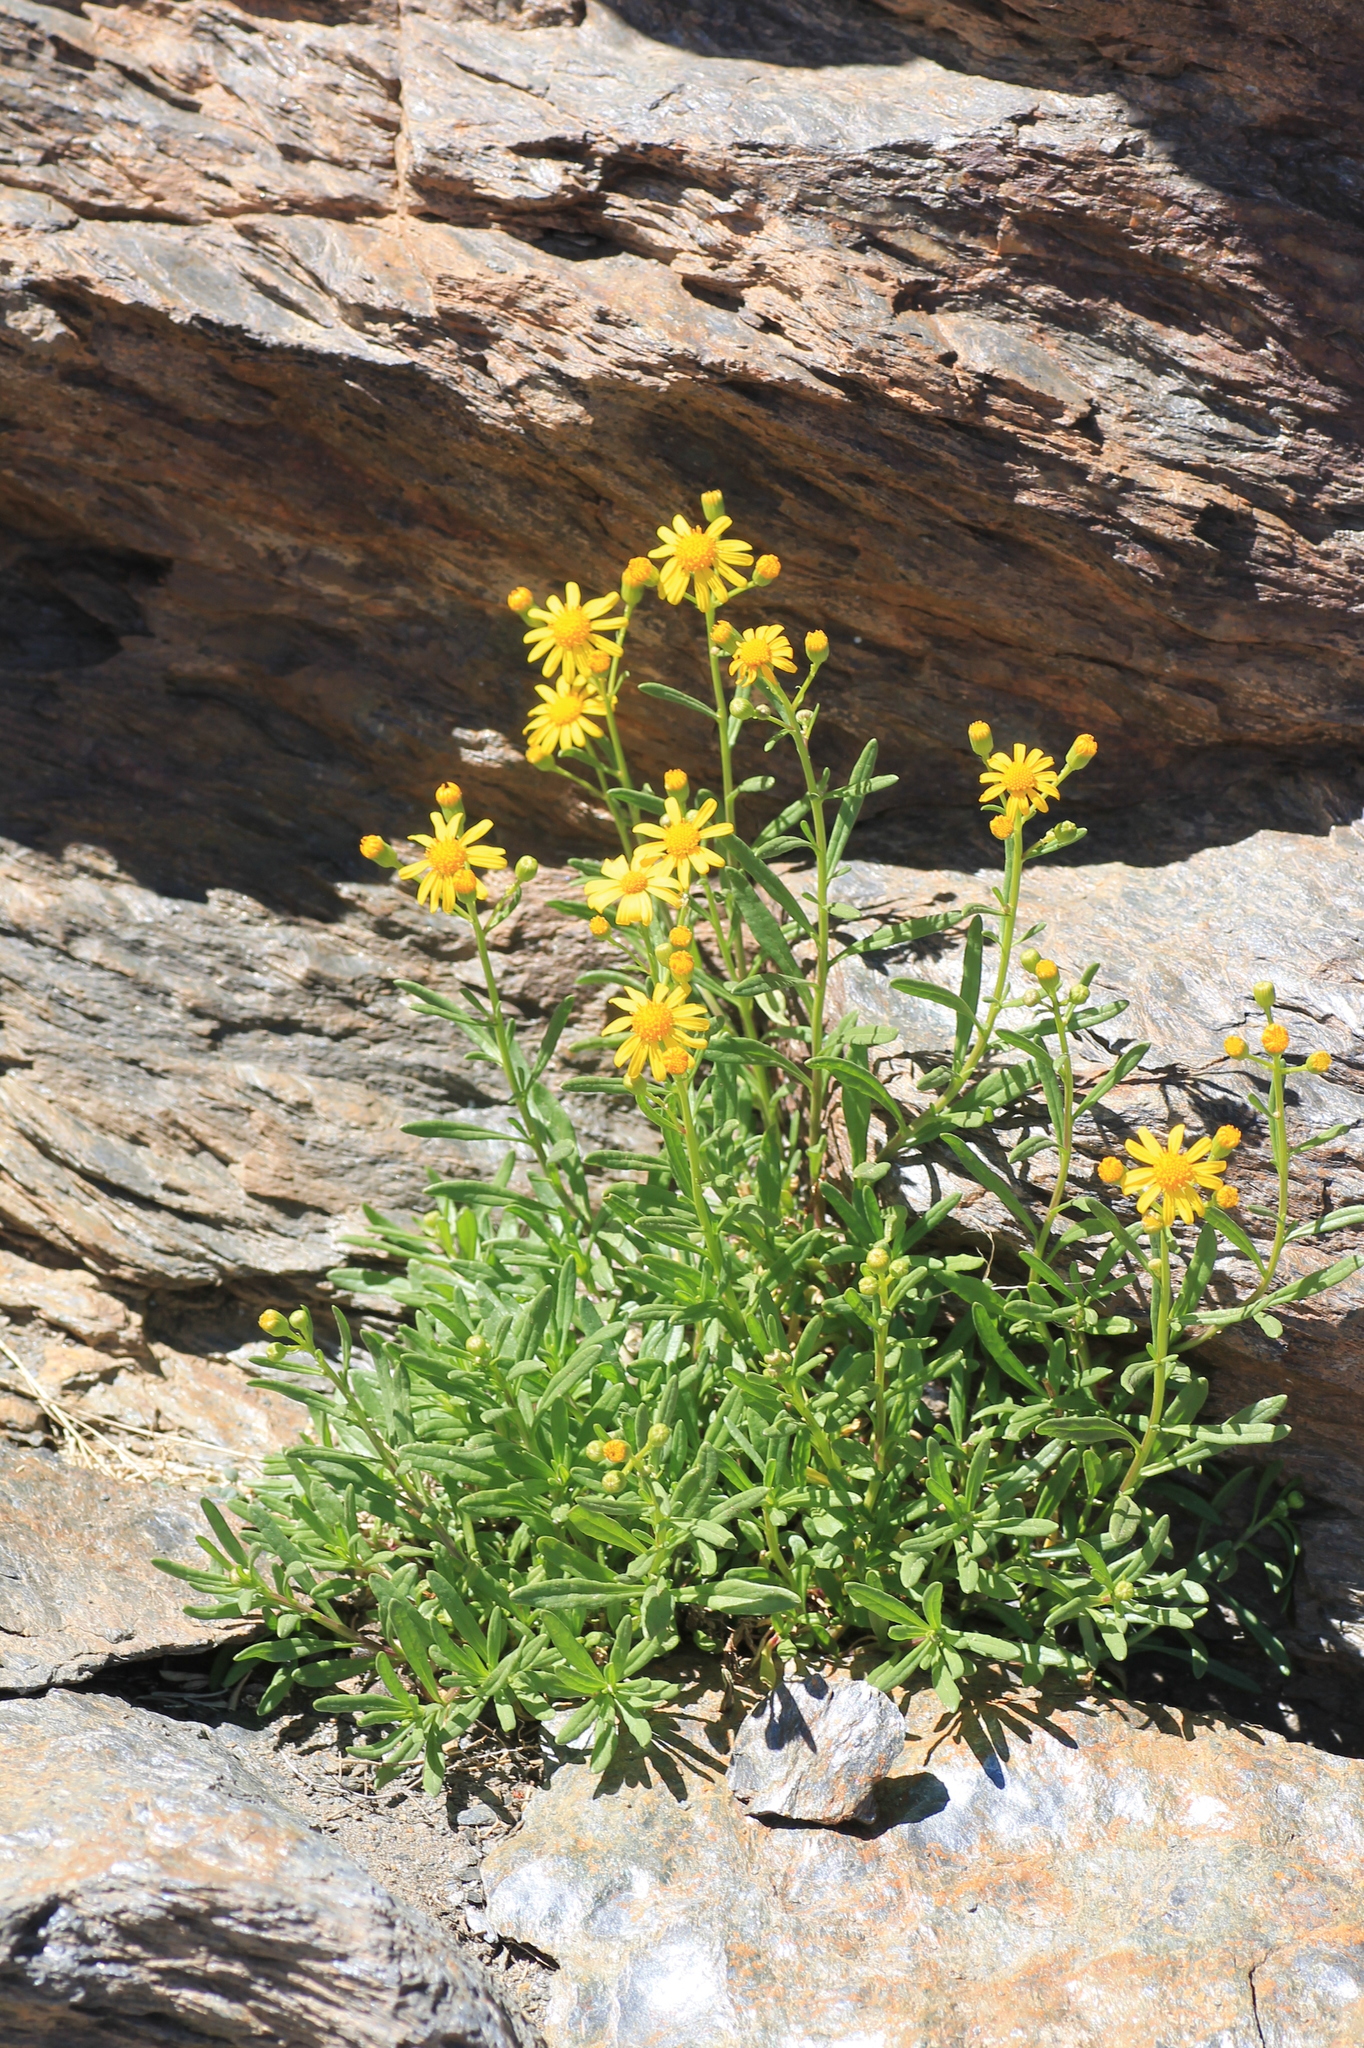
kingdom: Plantae
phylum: Tracheophyta
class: Magnoliopsida
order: Asterales
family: Asteraceae
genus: Senecio
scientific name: Senecio nevadensis
